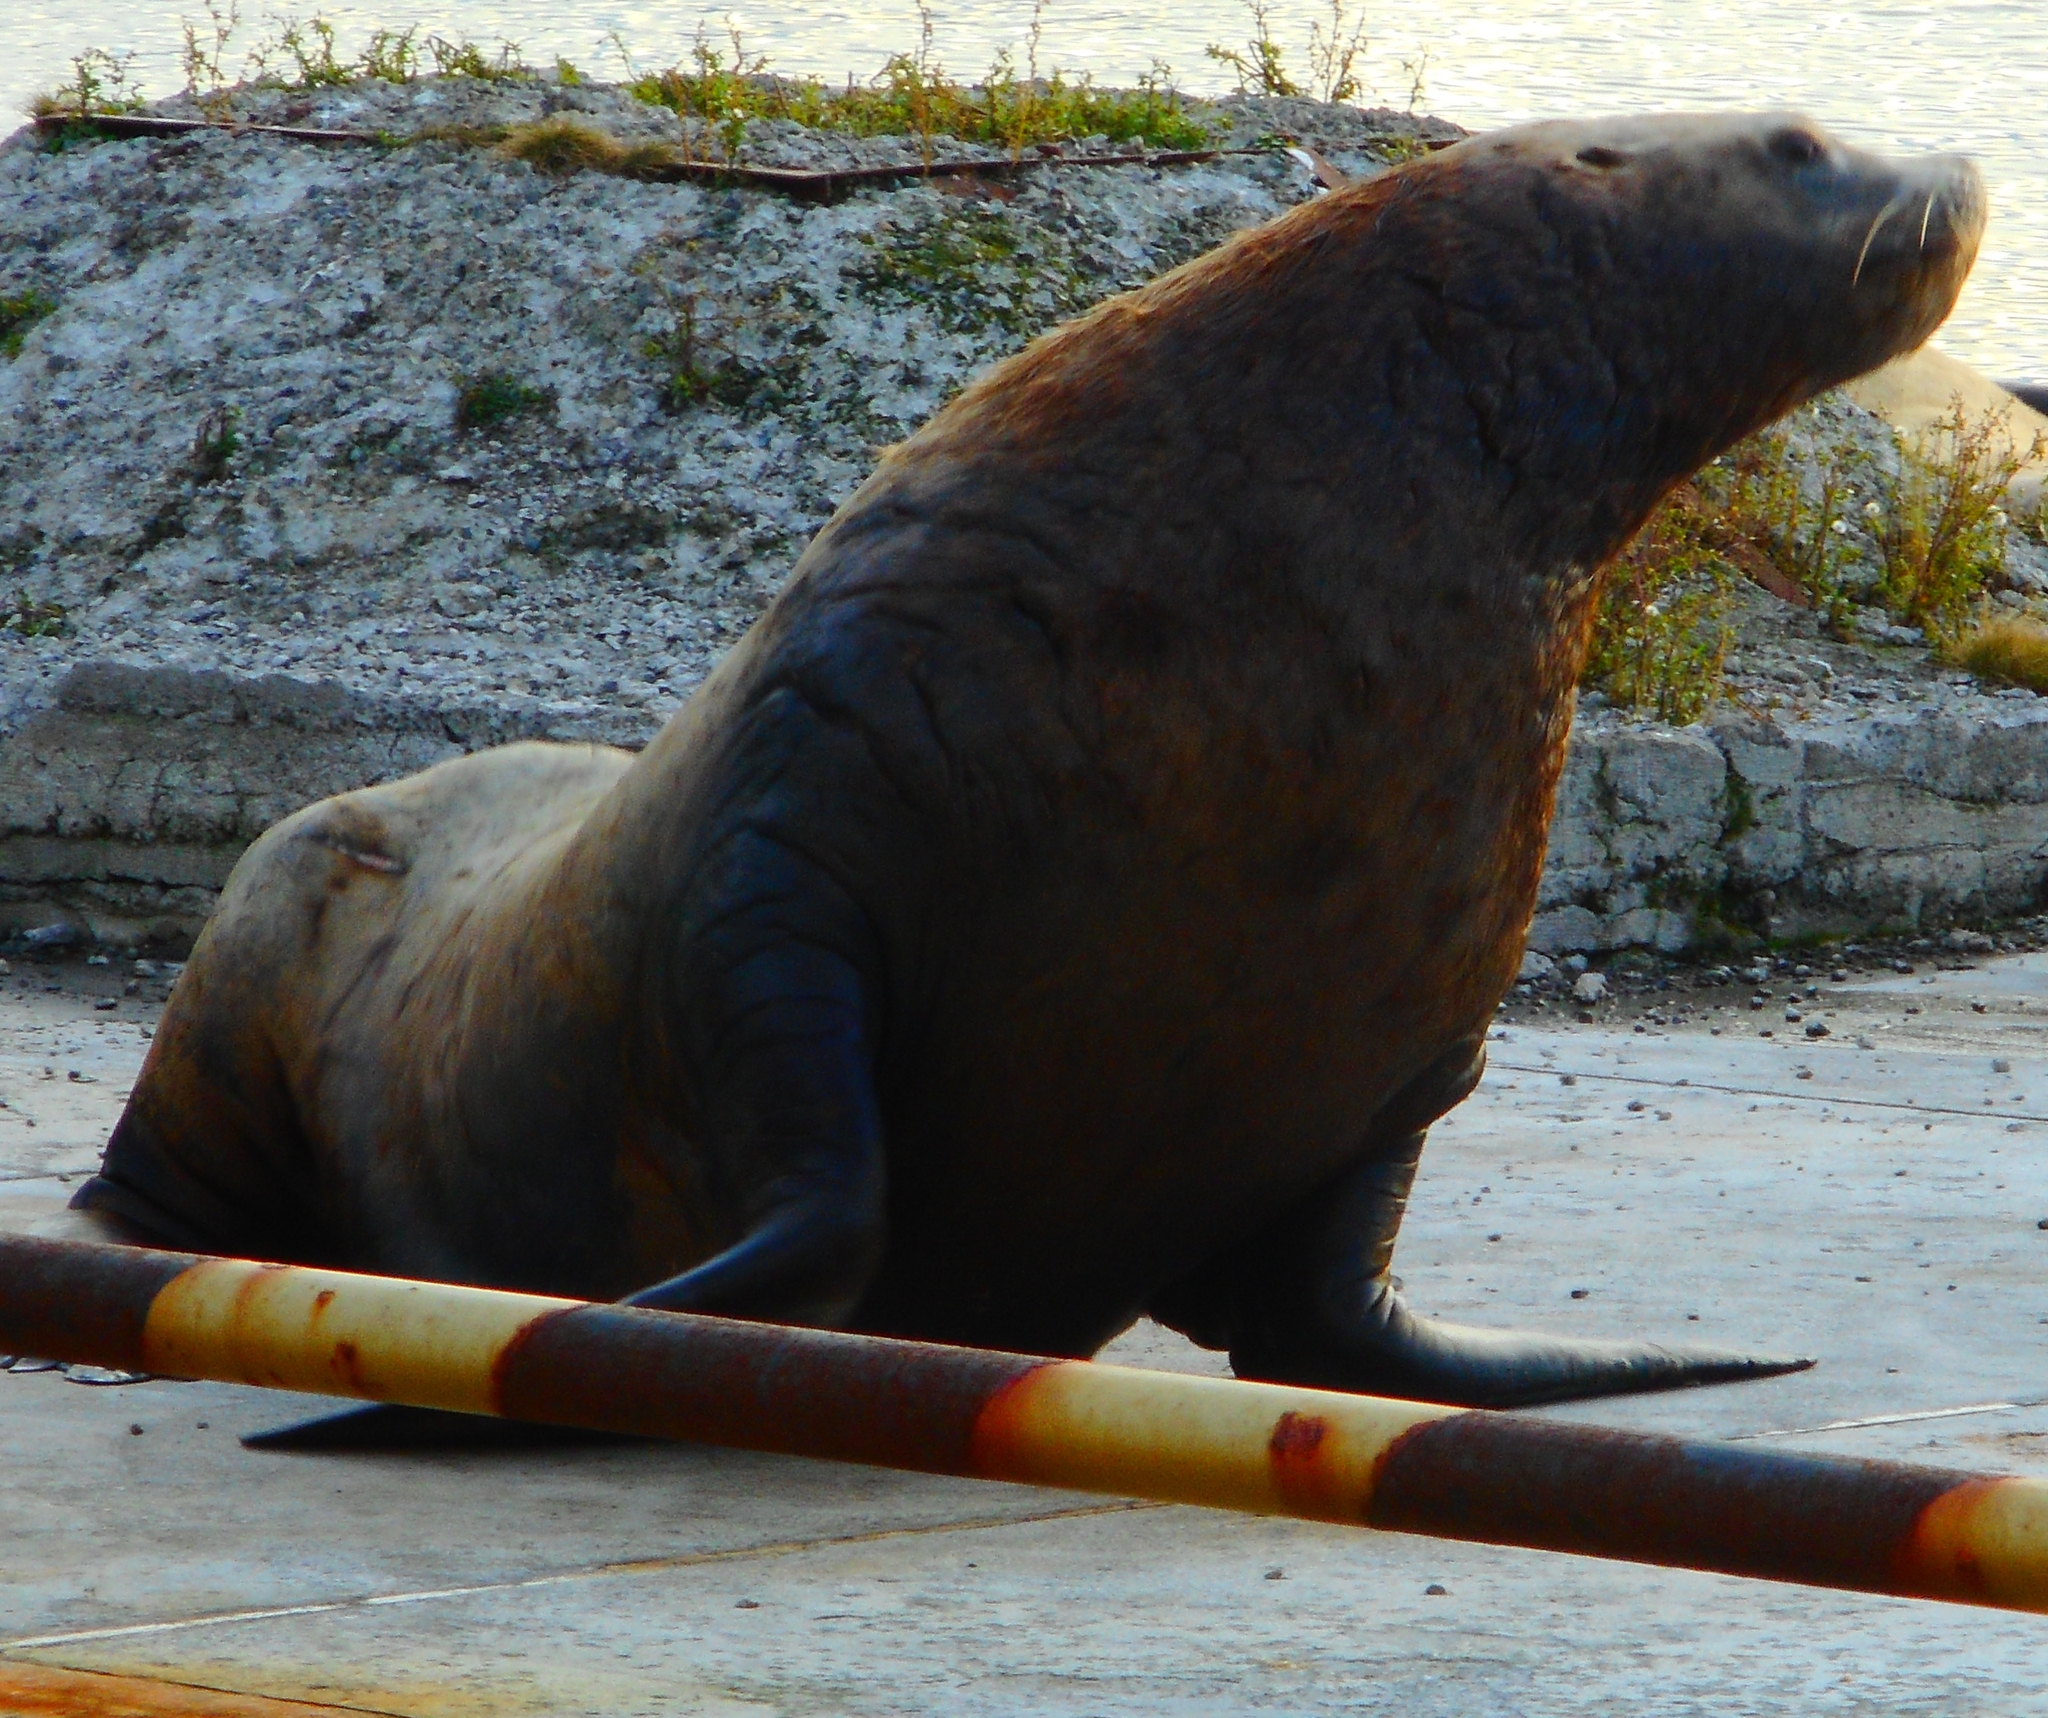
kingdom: Animalia
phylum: Chordata
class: Mammalia
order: Carnivora
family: Otariidae
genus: Eumetopias
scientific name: Eumetopias jubatus
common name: Steller sea lion
